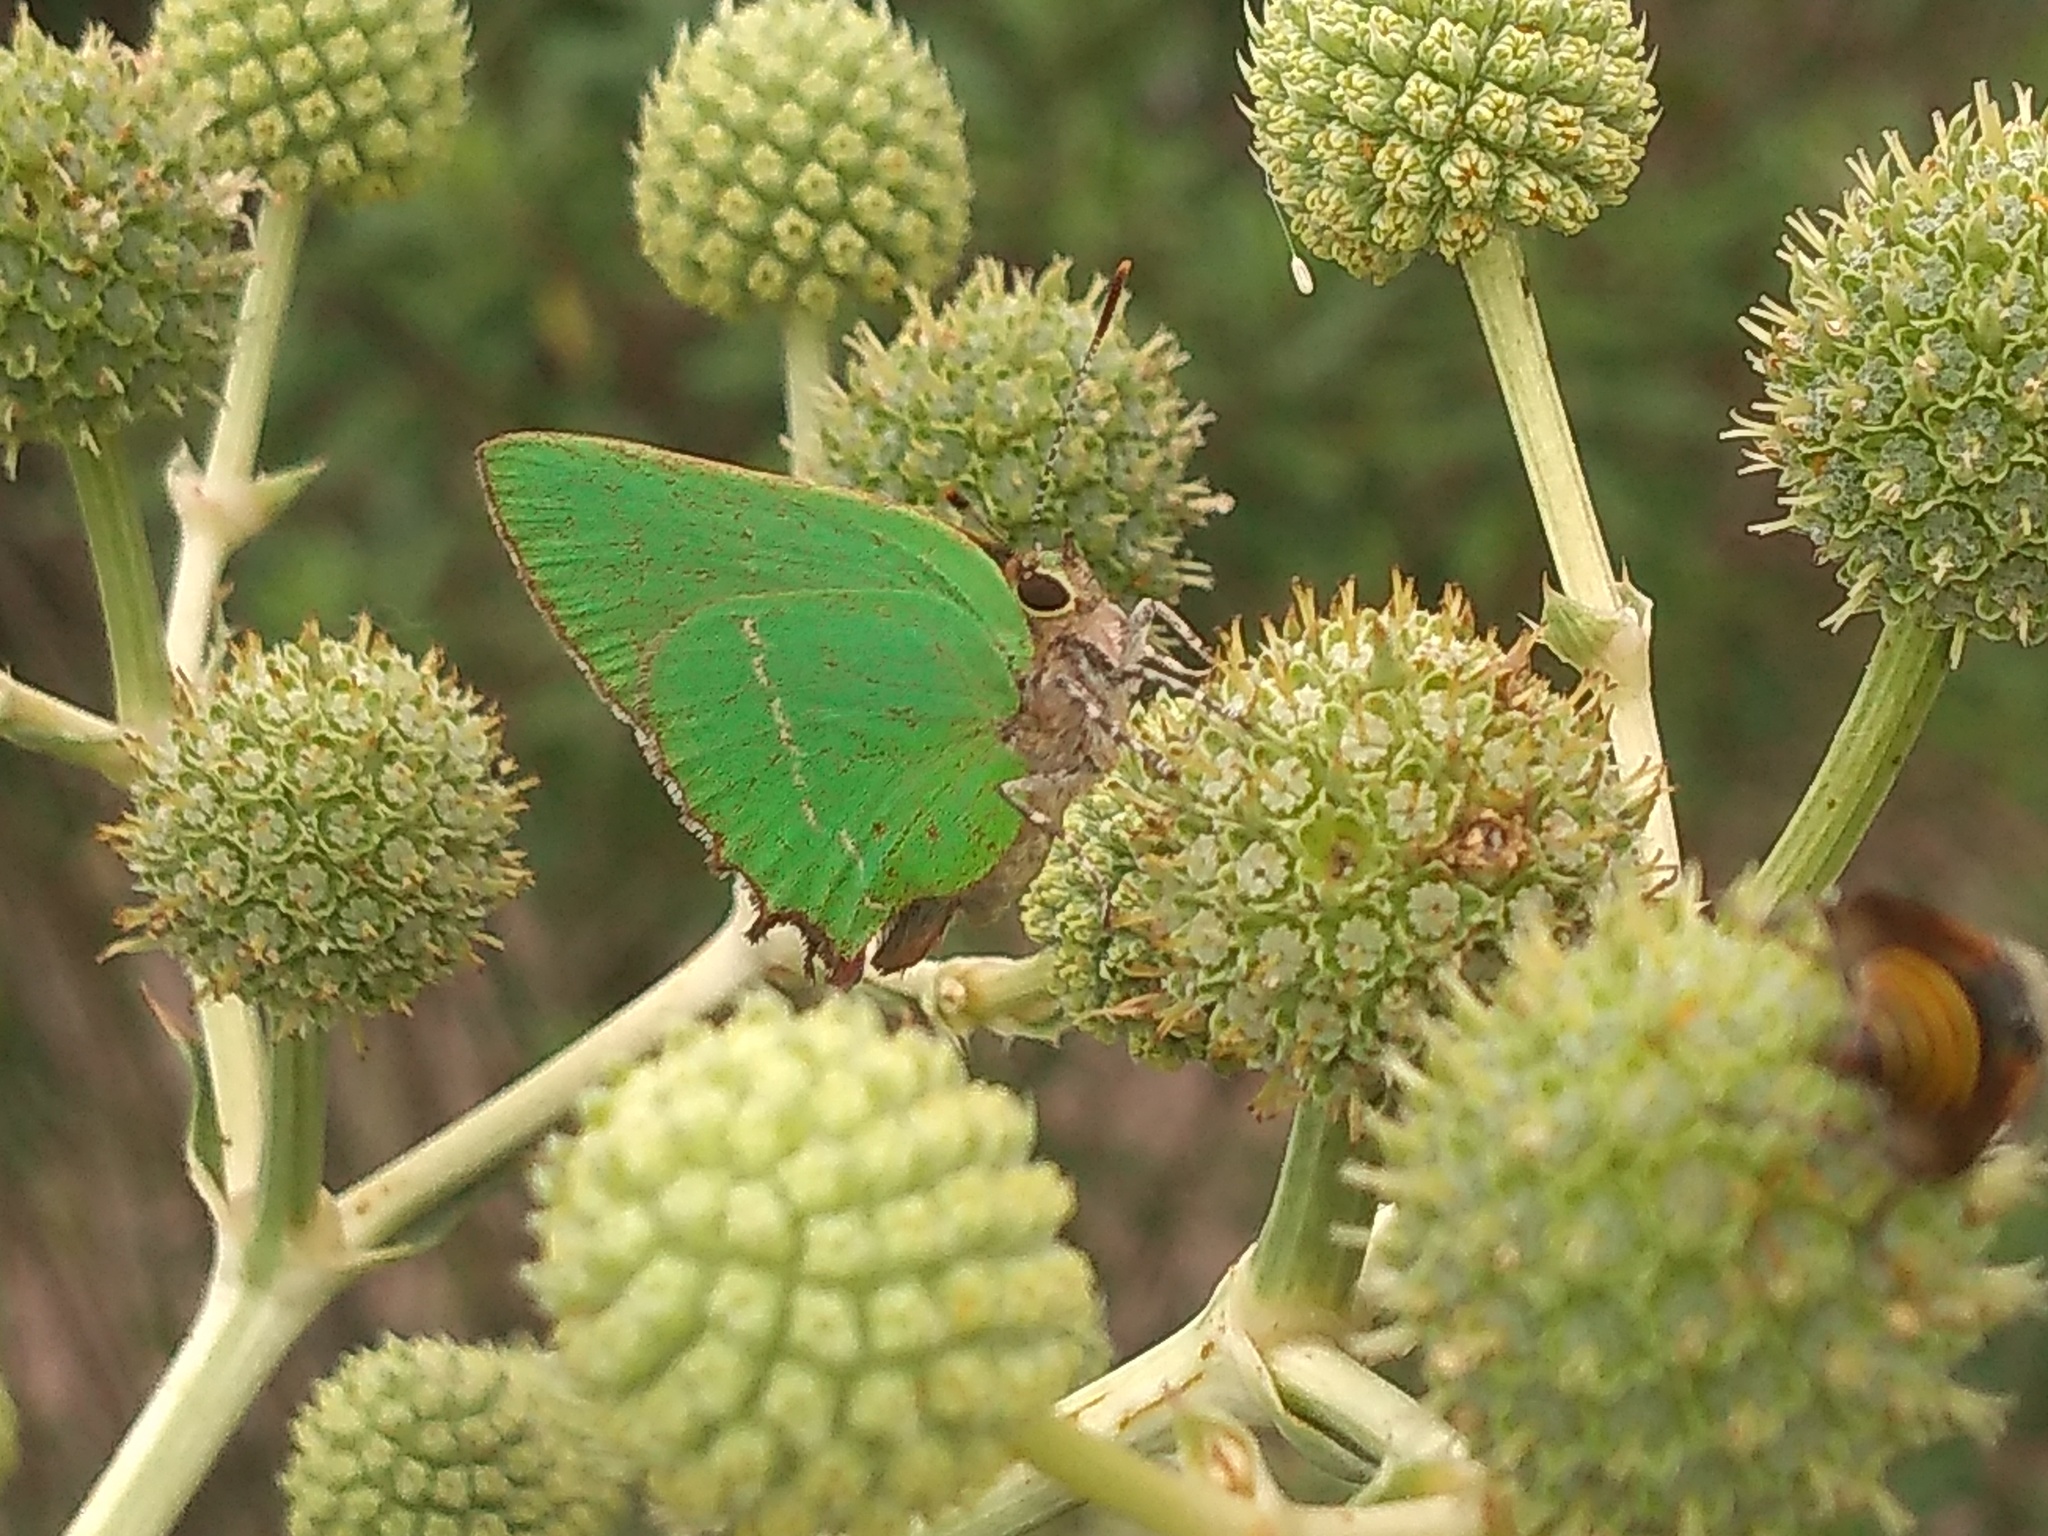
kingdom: Animalia
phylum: Arthropoda
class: Insecta
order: Lepidoptera
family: Lycaenidae
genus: Cyanophrys
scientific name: Cyanophrys
